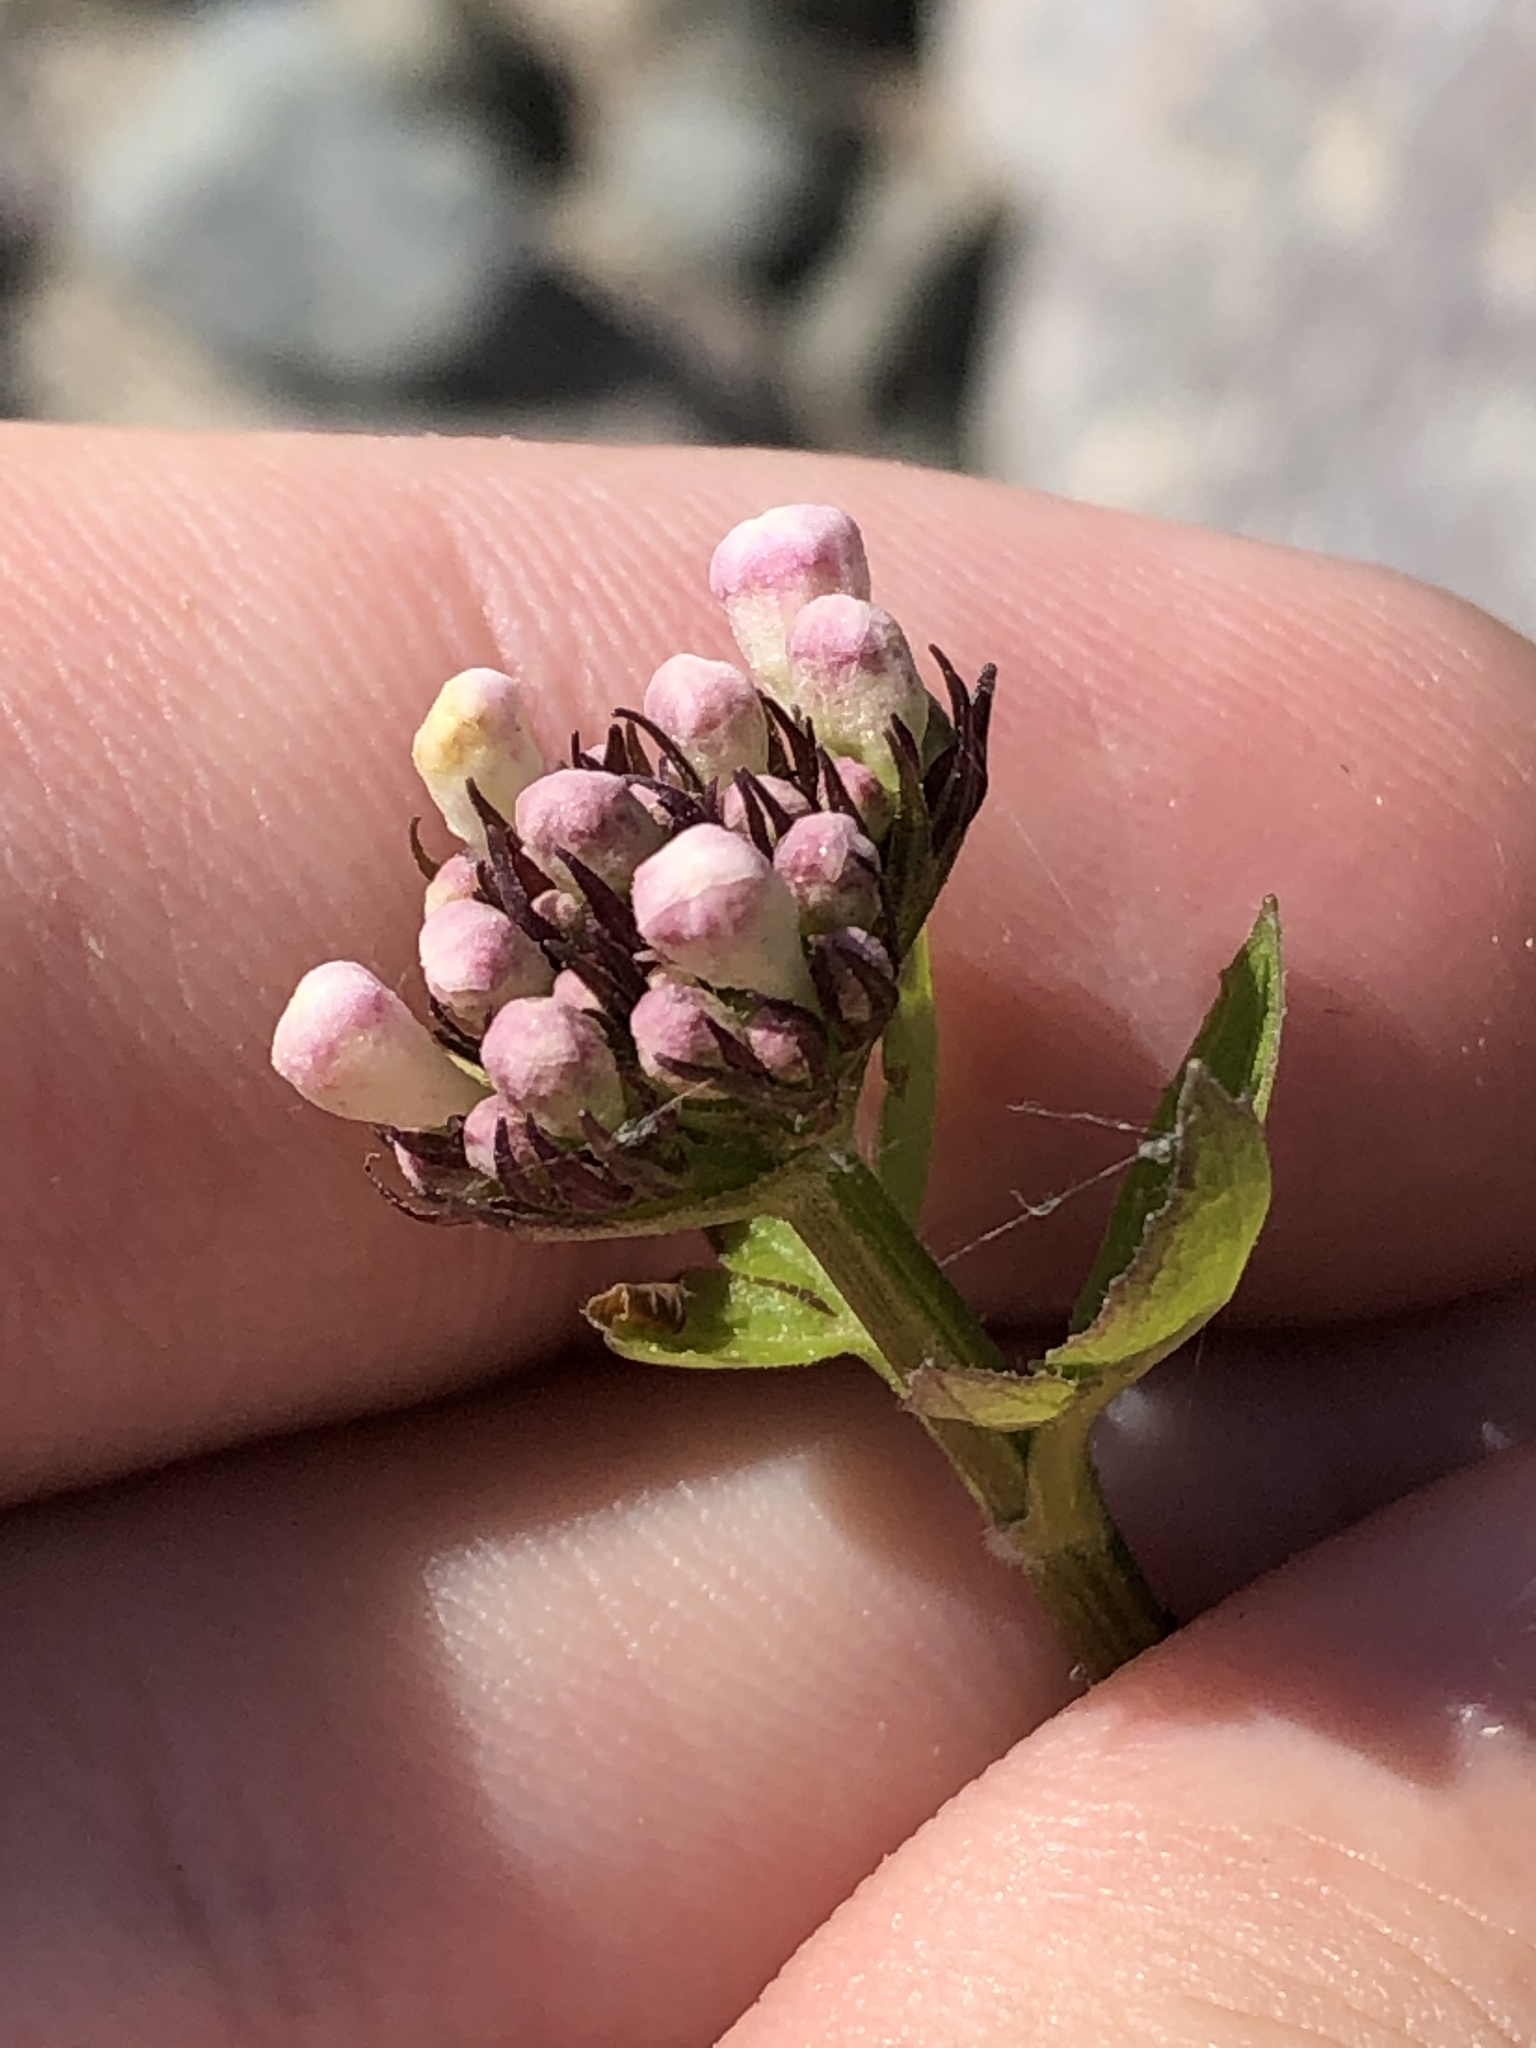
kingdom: Plantae
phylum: Tracheophyta
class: Magnoliopsida
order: Dipsacales
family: Caprifoliaceae
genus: Valeriana
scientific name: Valeriana sitchensis
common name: Pacific valerian
